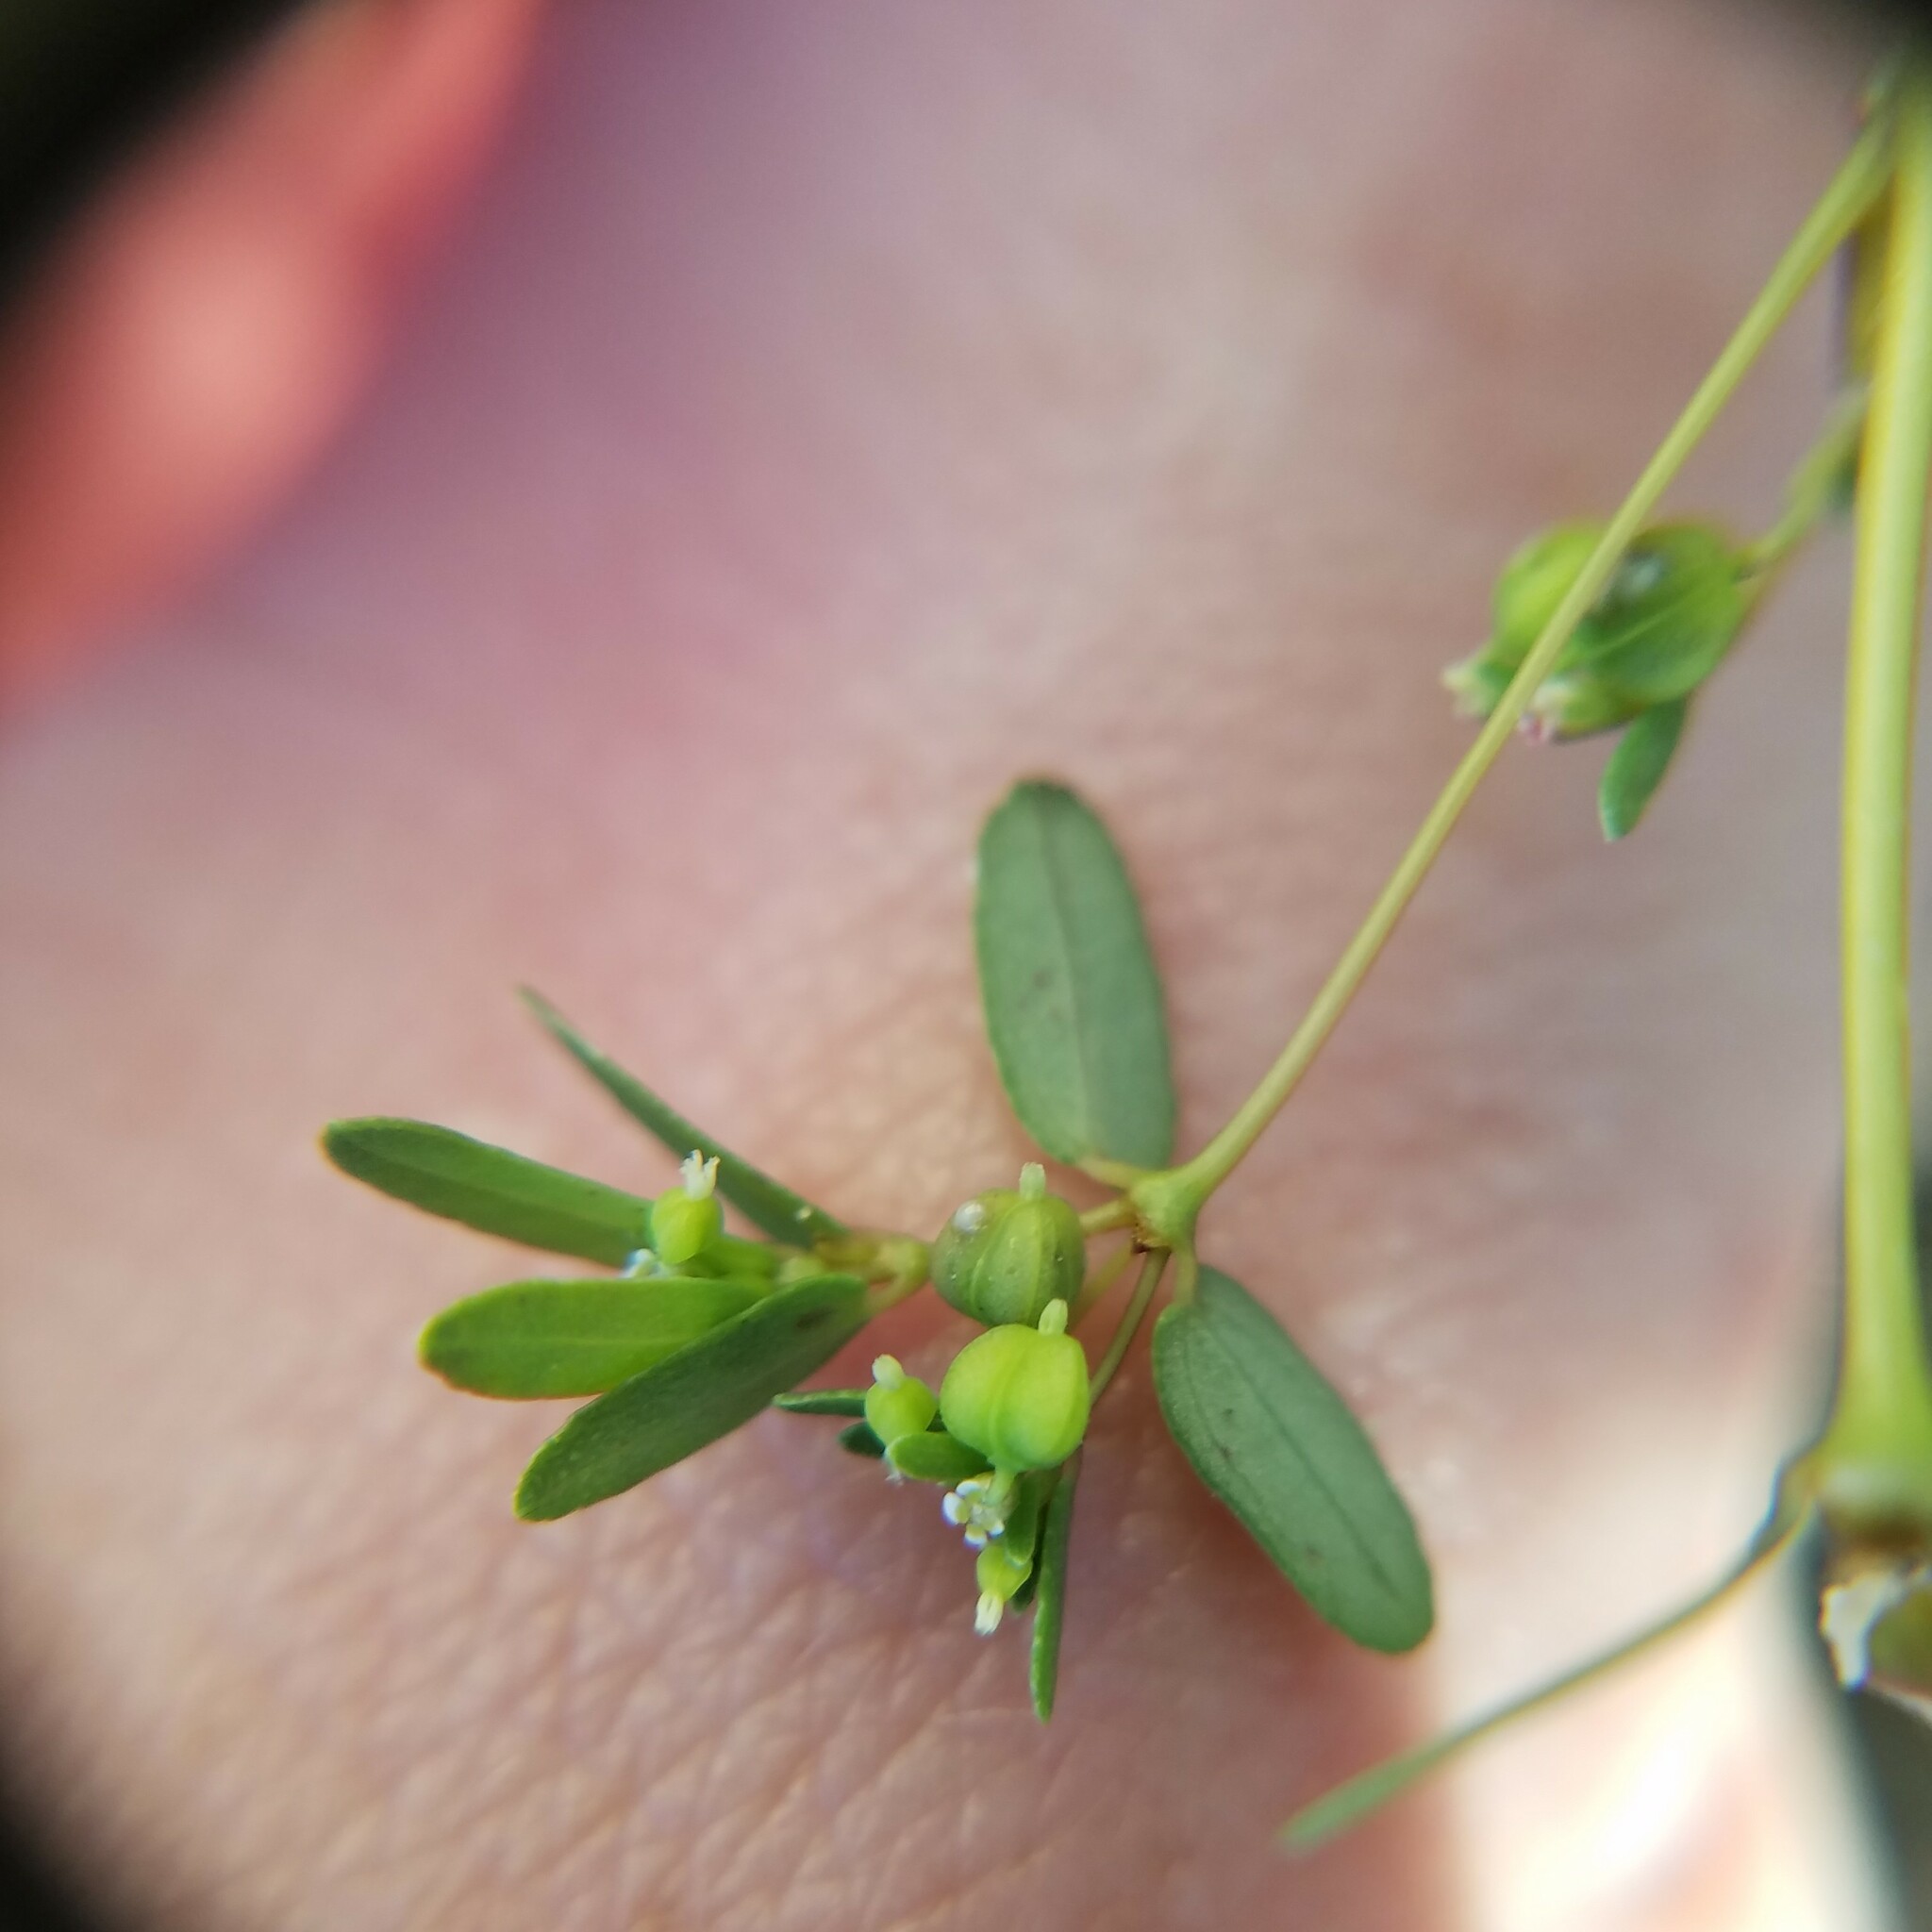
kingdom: Plantae
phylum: Tracheophyta
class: Magnoliopsida
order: Malpighiales
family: Euphorbiaceae
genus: Euphorbia
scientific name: Euphorbia hypericifolia
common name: Graceful sandmat
